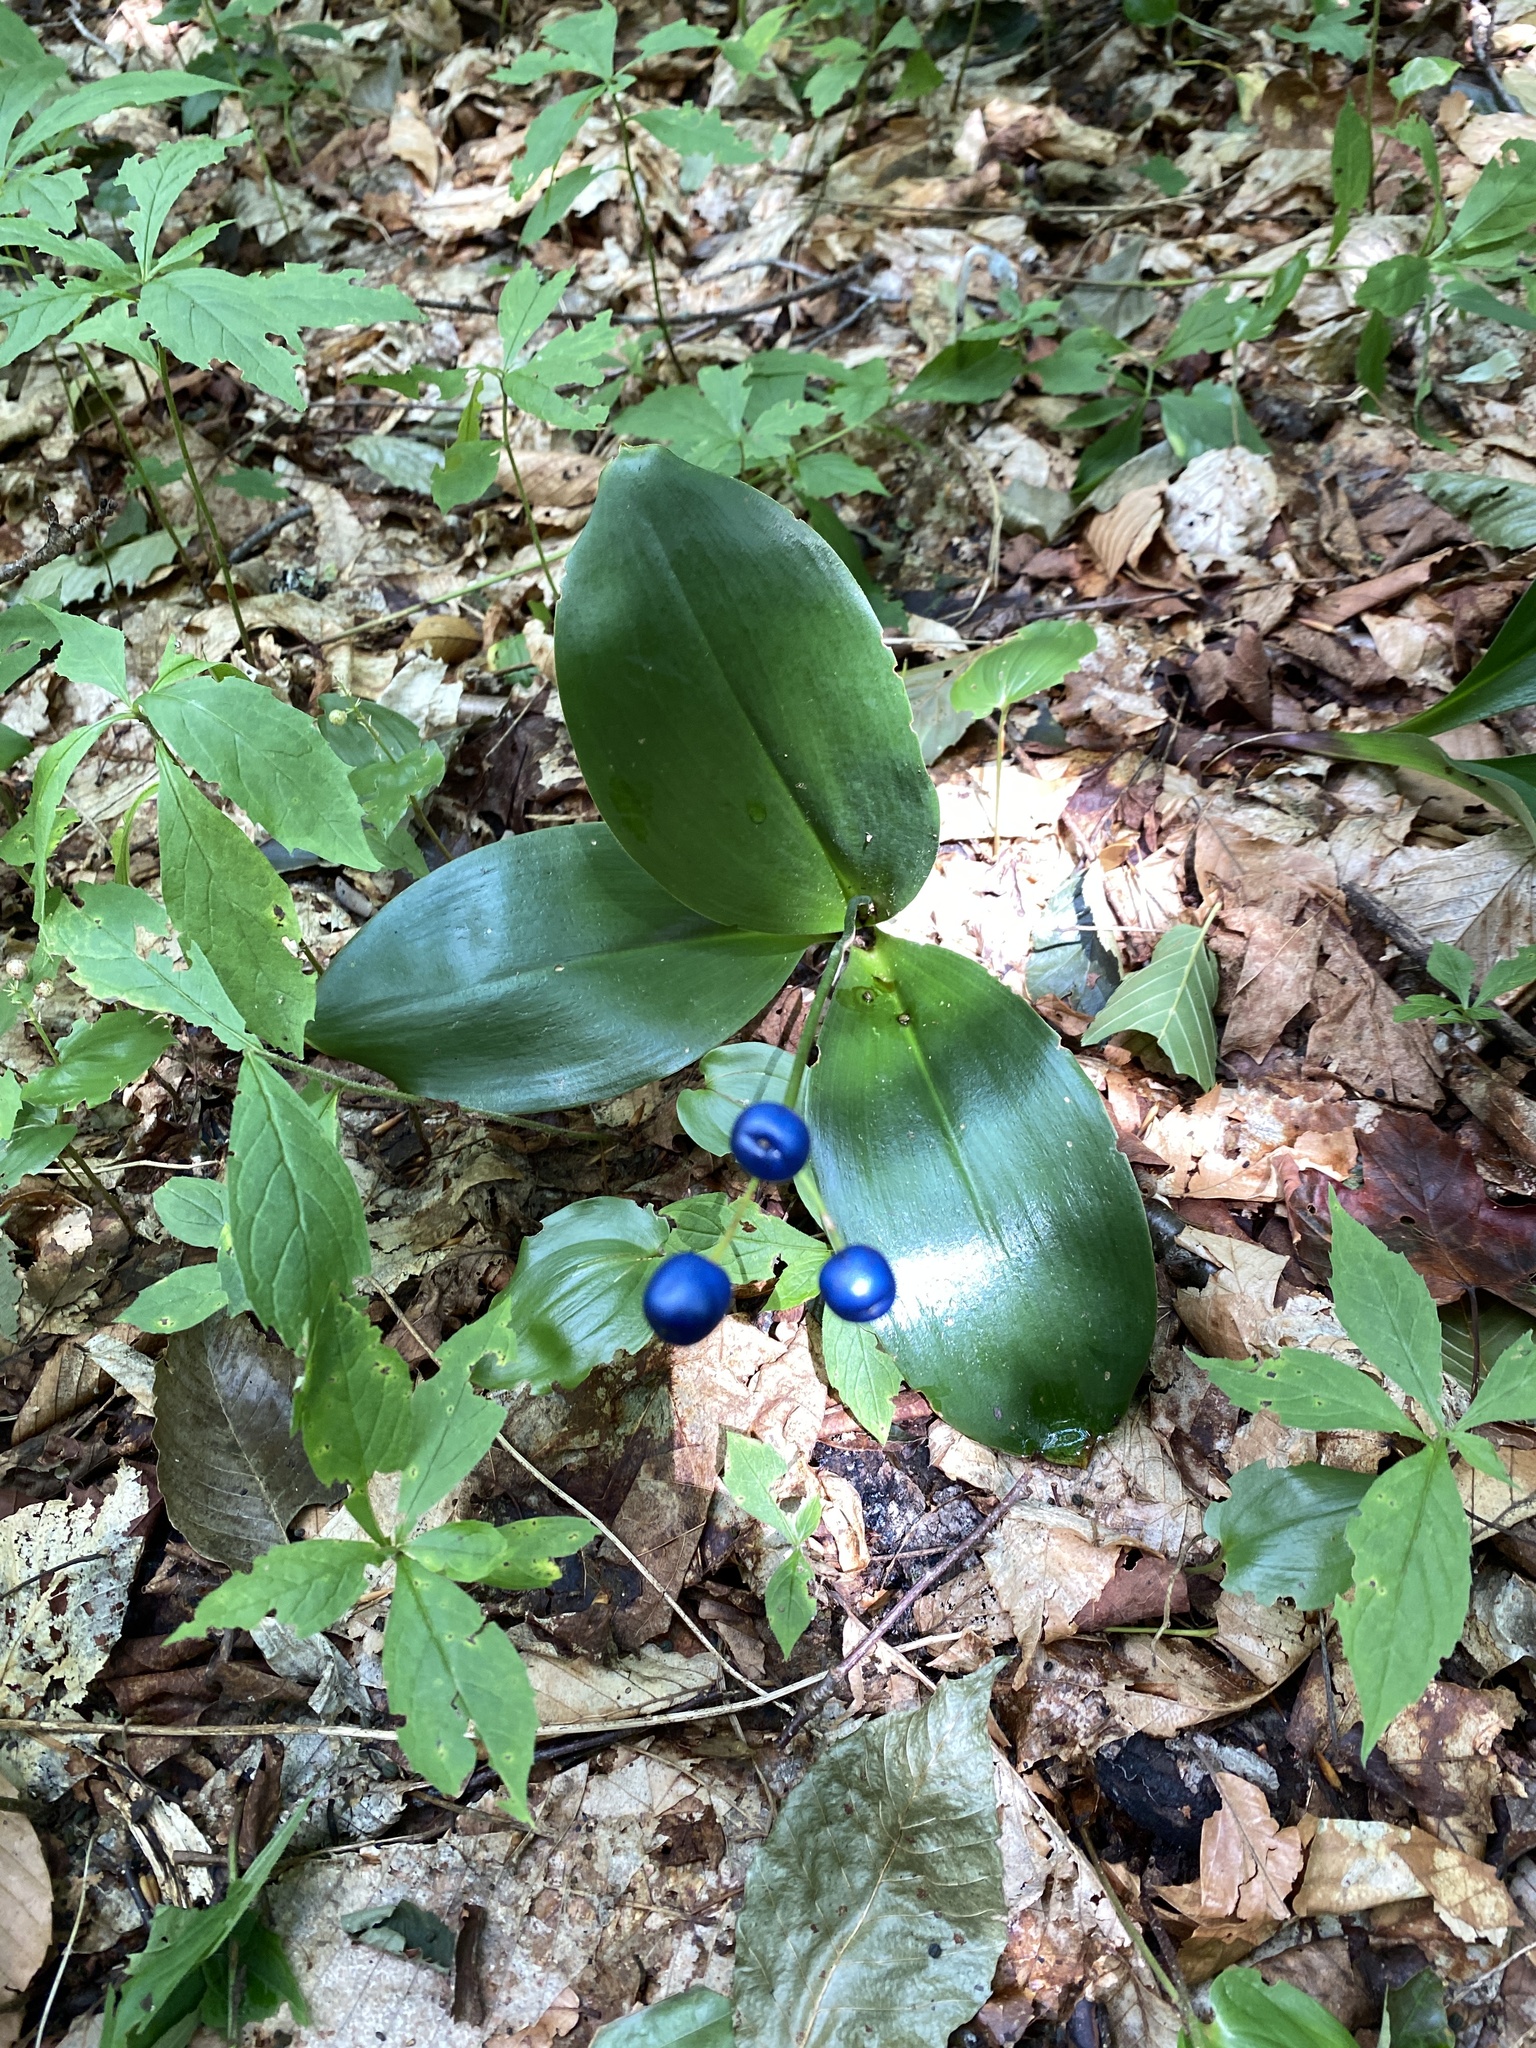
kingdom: Plantae
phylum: Tracheophyta
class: Liliopsida
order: Liliales
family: Liliaceae
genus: Clintonia
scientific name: Clintonia borealis
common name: Yellow clintonia
